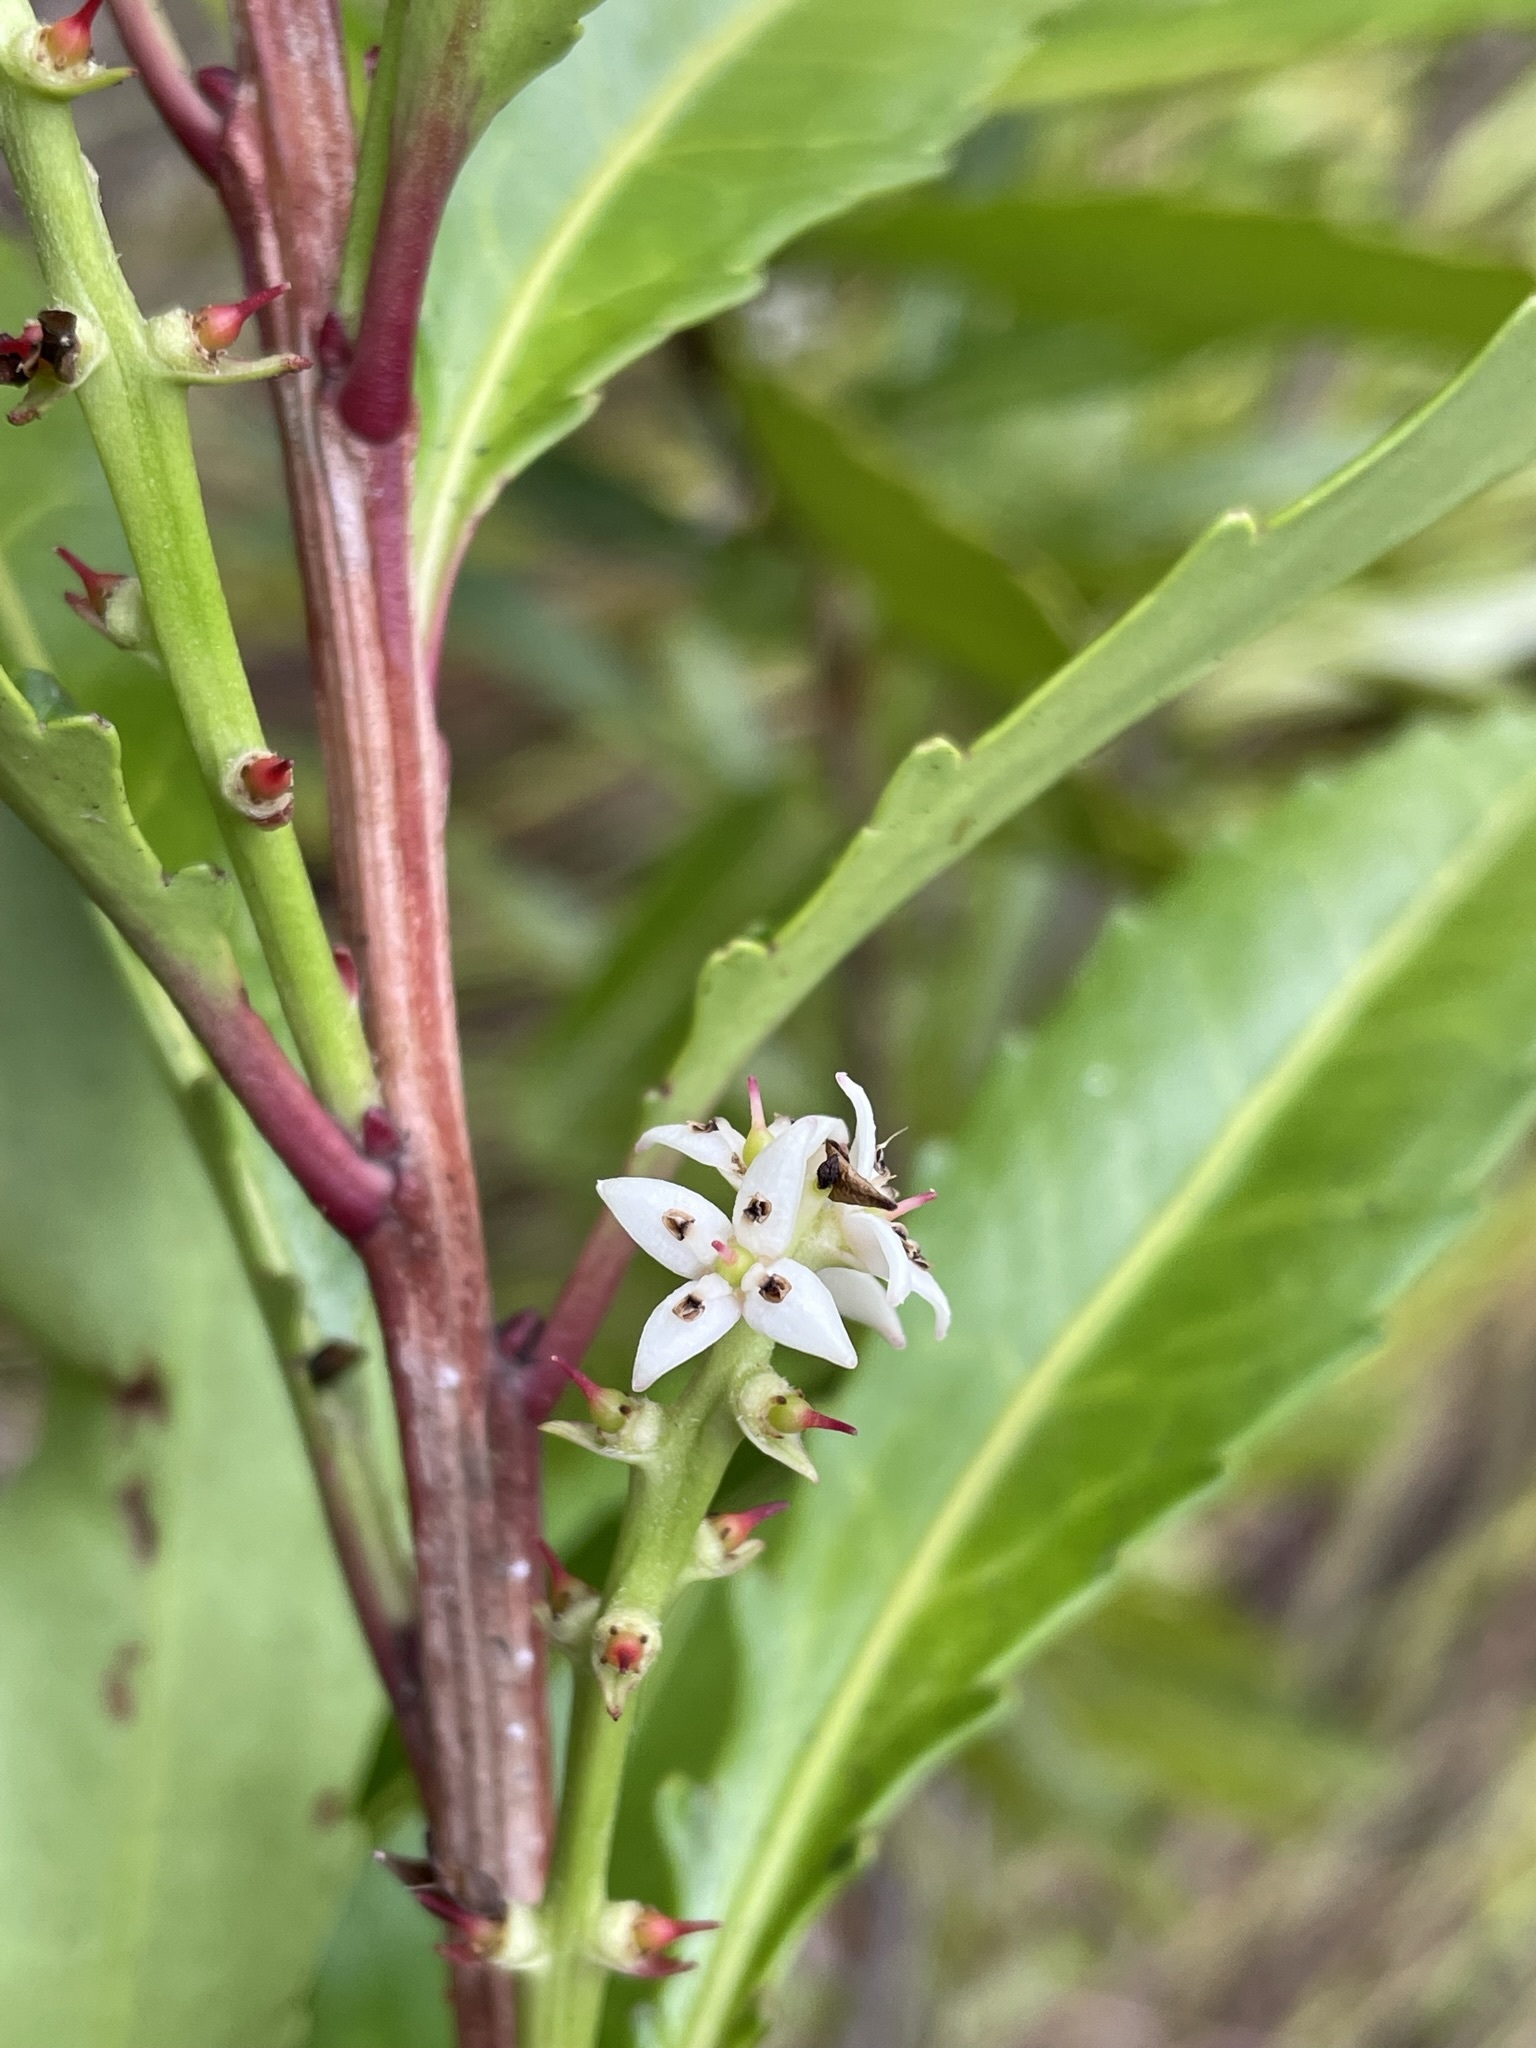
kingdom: Plantae
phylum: Tracheophyta
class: Magnoliopsida
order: Proteales
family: Proteaceae
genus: Cenarrhenes
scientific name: Cenarrhenes nitida
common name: Native plum
